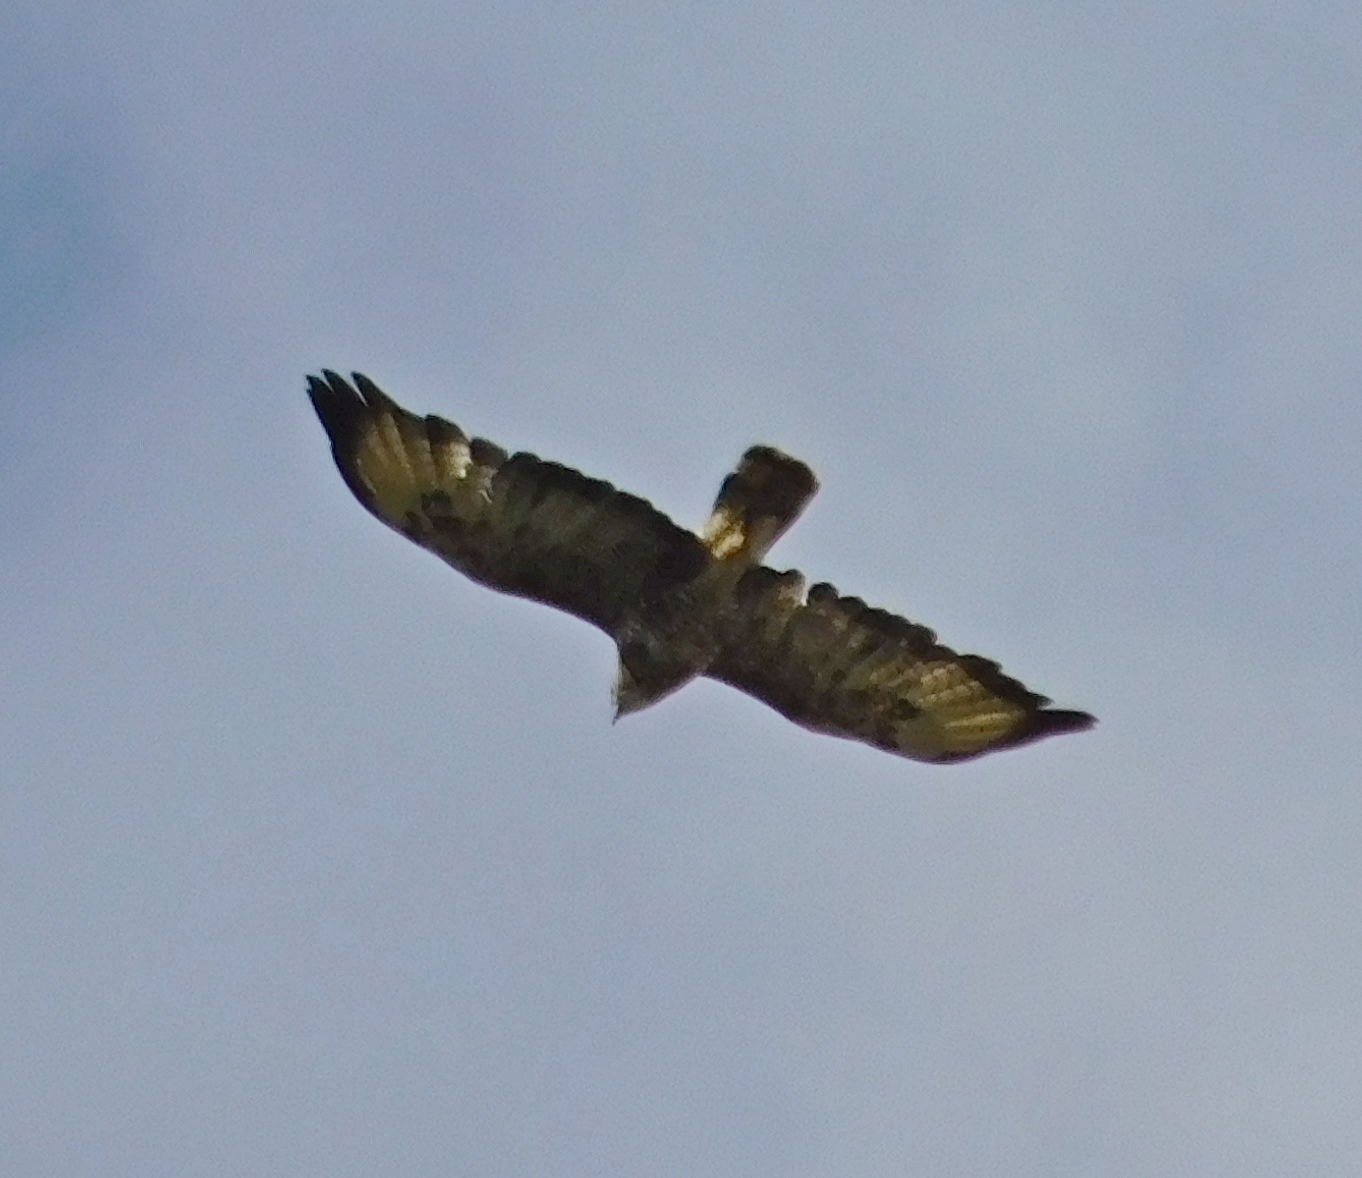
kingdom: Animalia
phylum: Chordata
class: Aves
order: Accipitriformes
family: Accipitridae
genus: Buteo
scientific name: Buteo buteo
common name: Common buzzard
